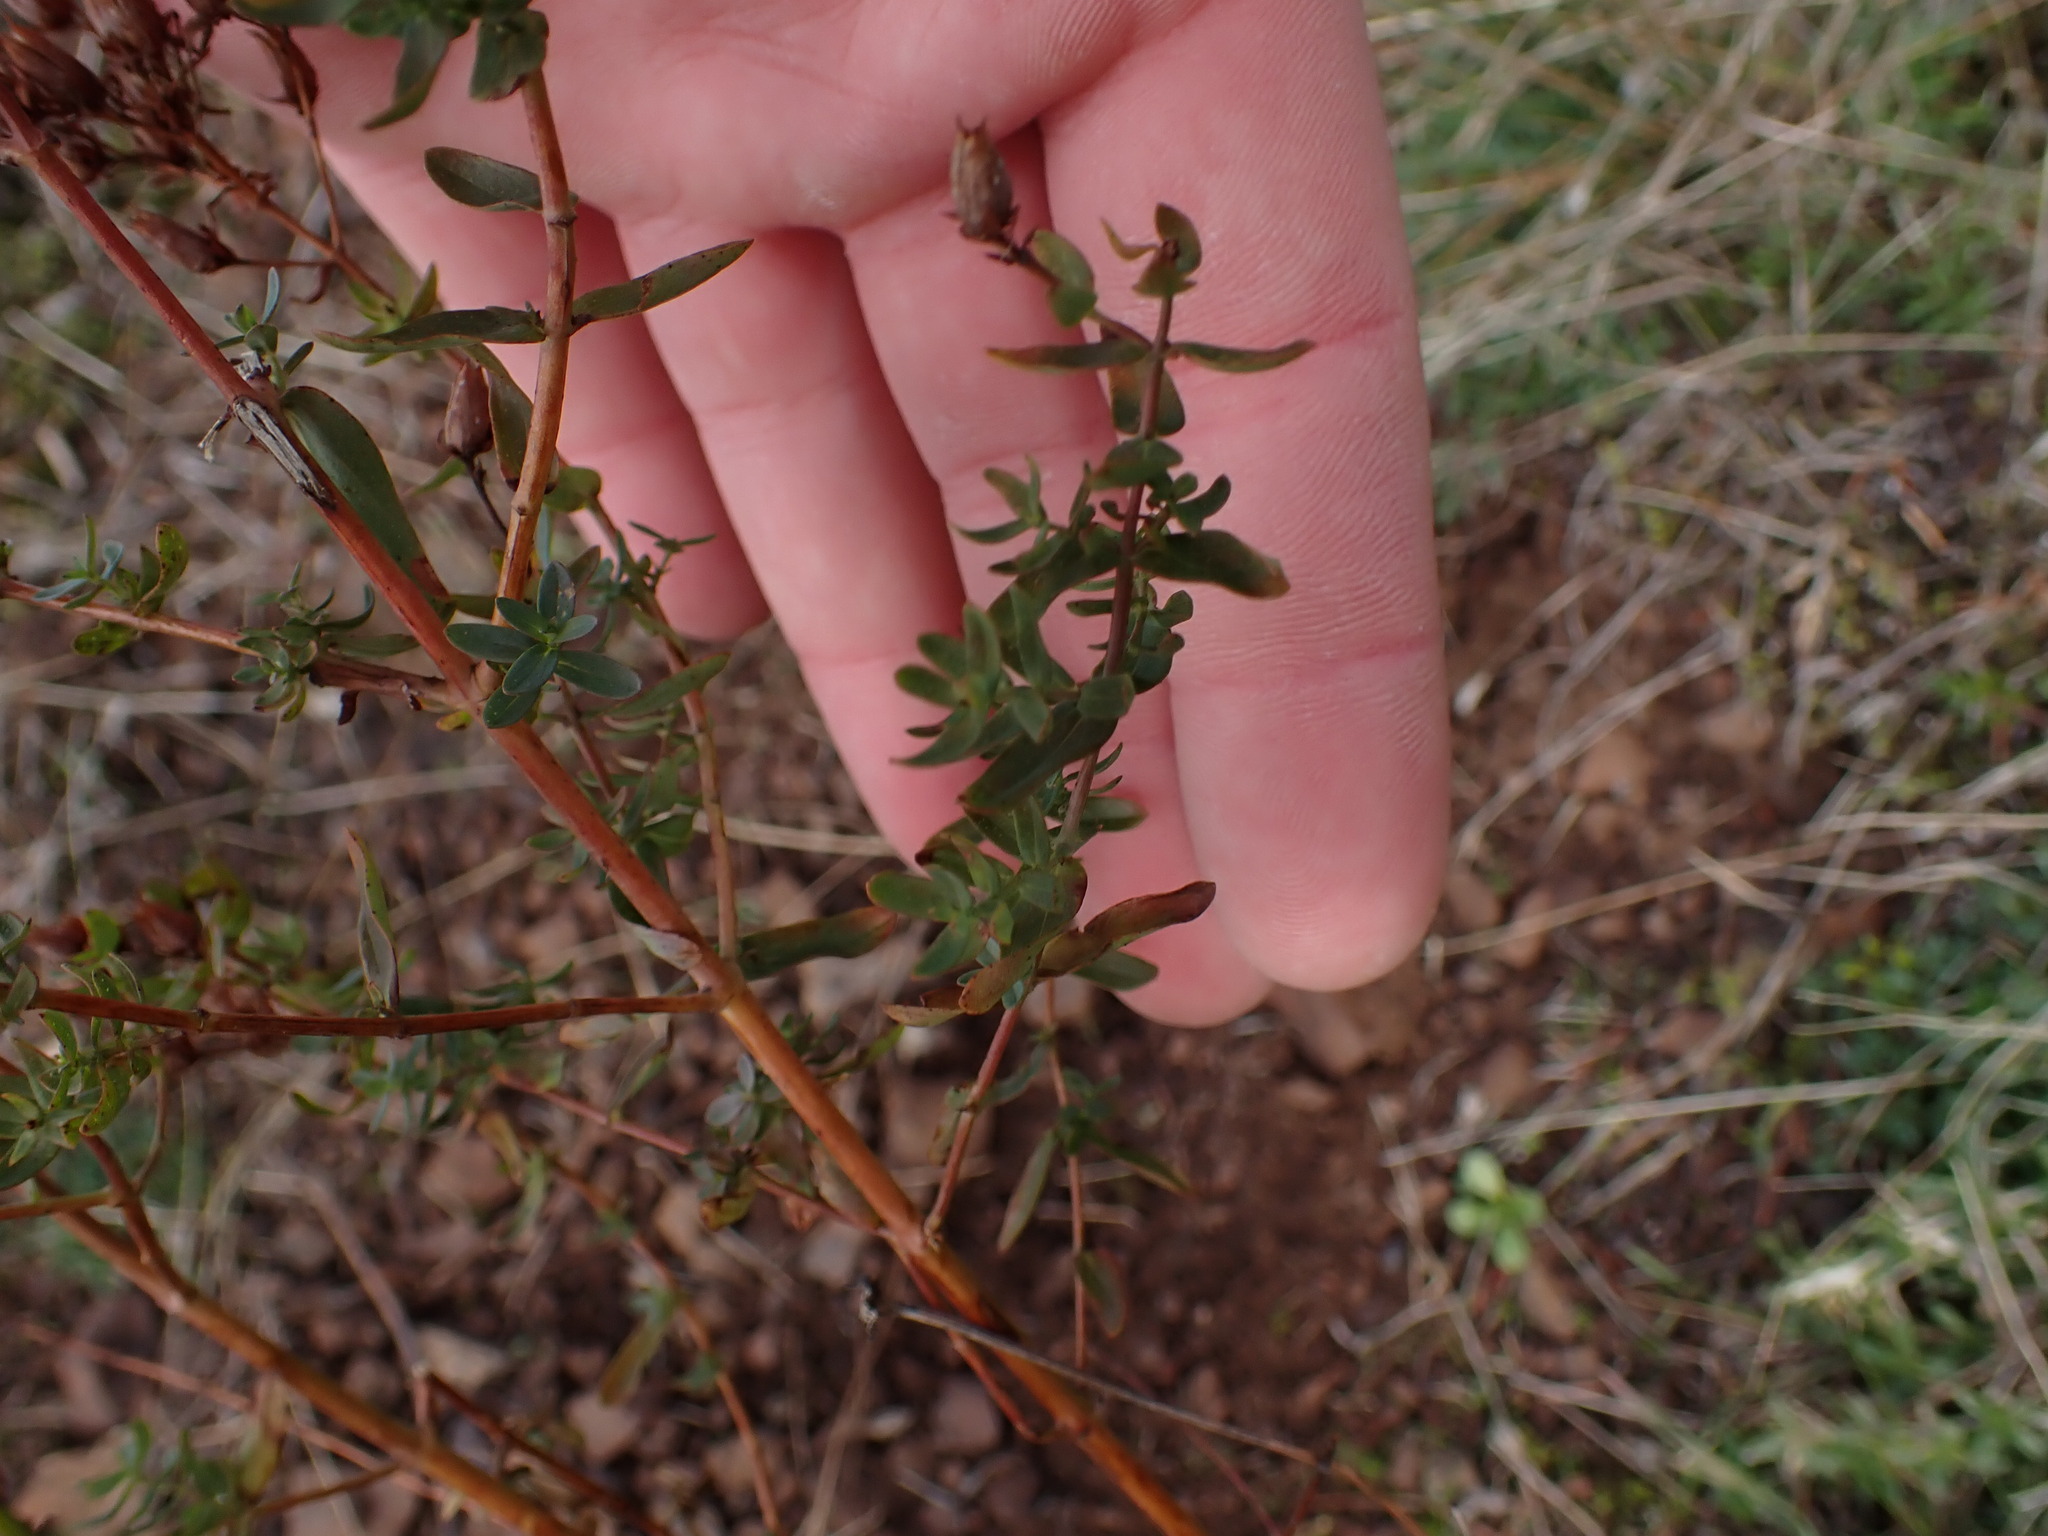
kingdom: Plantae
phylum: Tracheophyta
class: Magnoliopsida
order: Malpighiales
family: Hypericaceae
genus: Hypericum
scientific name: Hypericum perforatum
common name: Common st. johnswort
